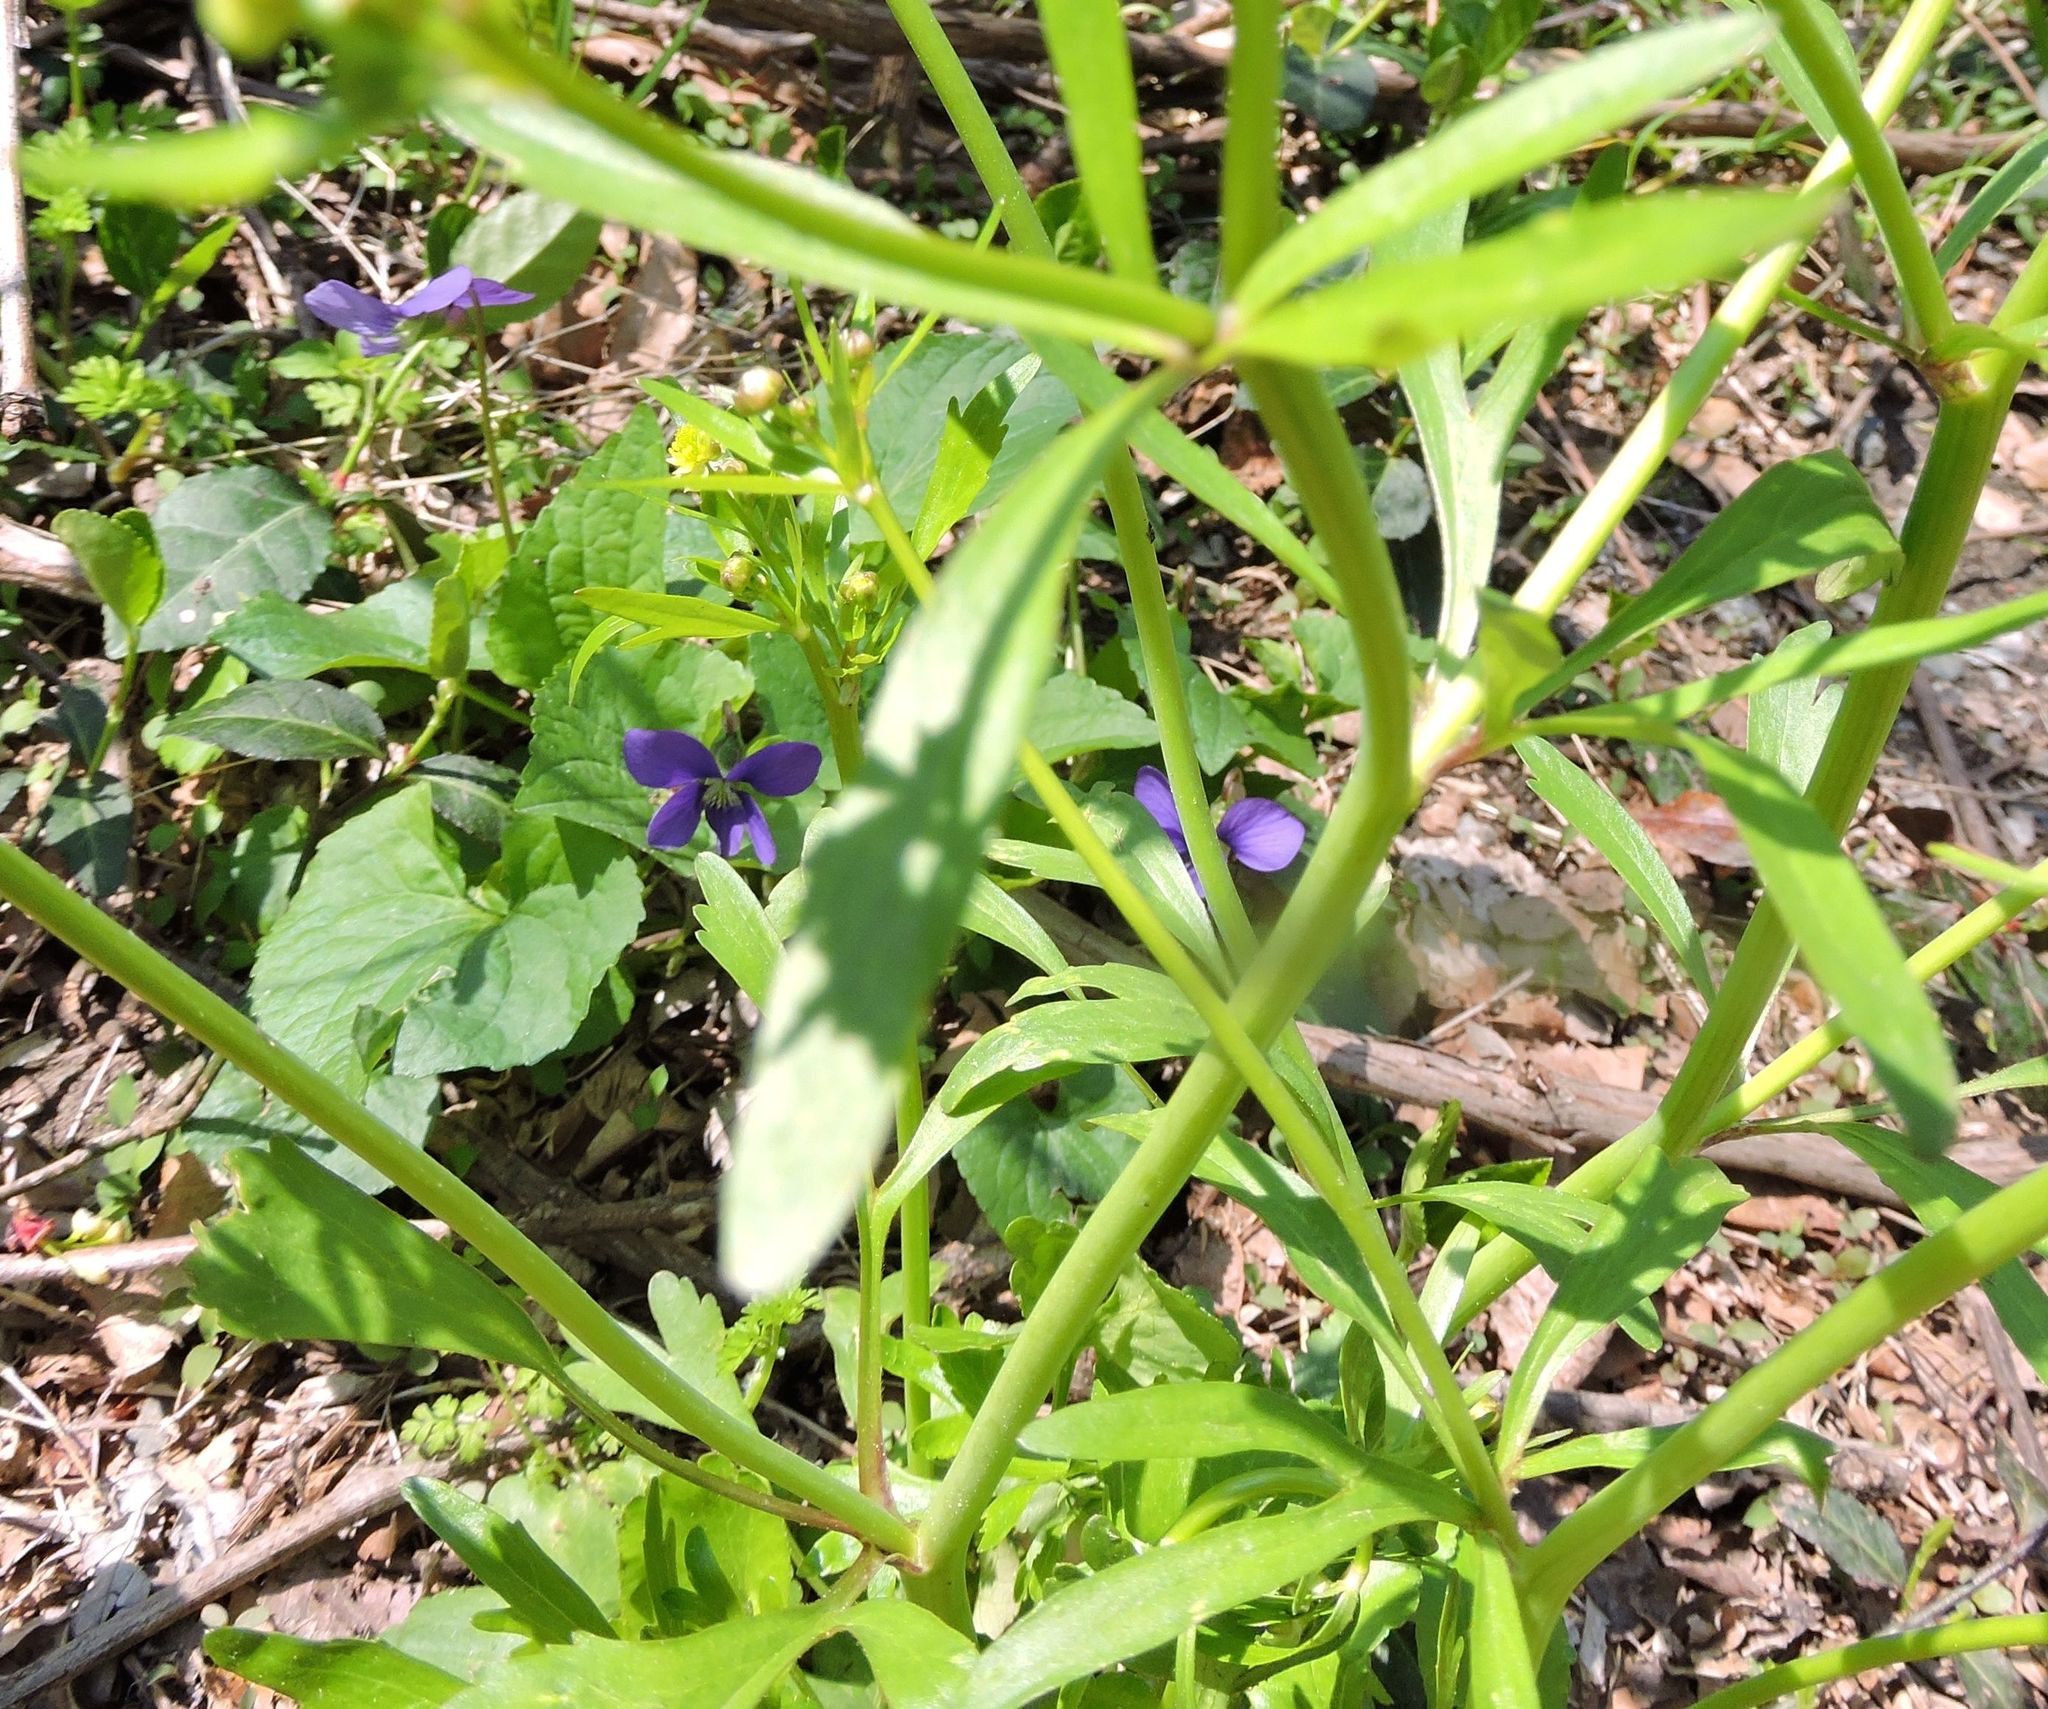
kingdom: Plantae
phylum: Tracheophyta
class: Magnoliopsida
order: Ranunculales
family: Ranunculaceae
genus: Ranunculus
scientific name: Ranunculus abortivus
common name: Early wood buttercup
